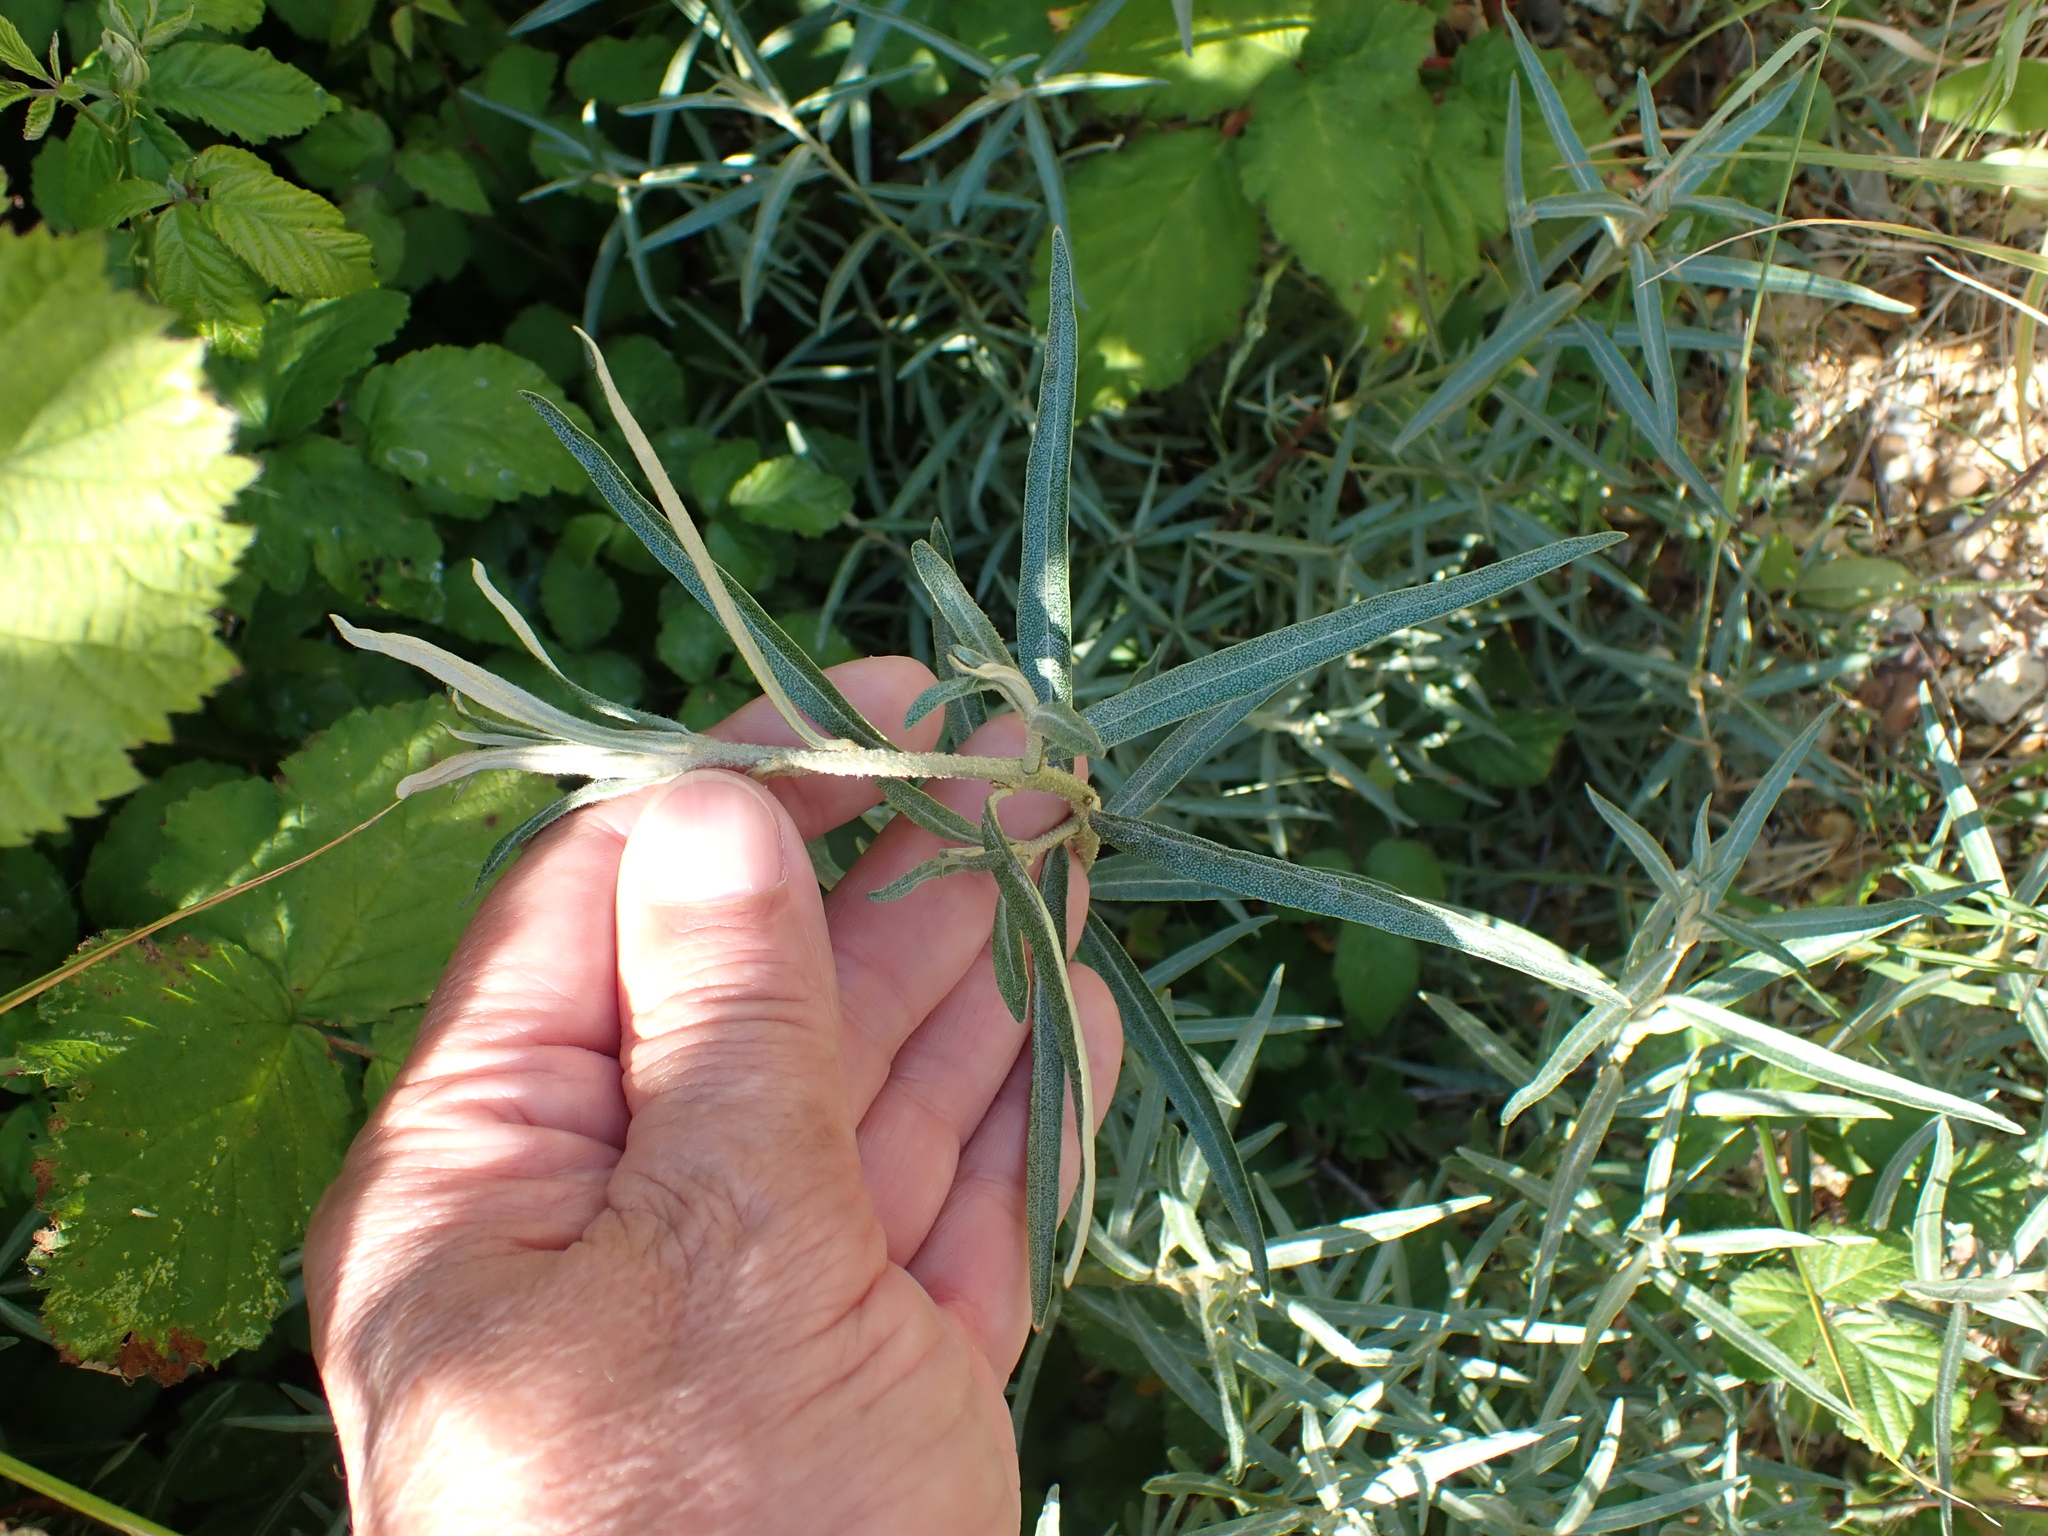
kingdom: Plantae
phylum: Tracheophyta
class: Magnoliopsida
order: Rosales
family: Elaeagnaceae
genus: Hippophae
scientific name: Hippophae rhamnoides
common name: Sea-buckthorn
